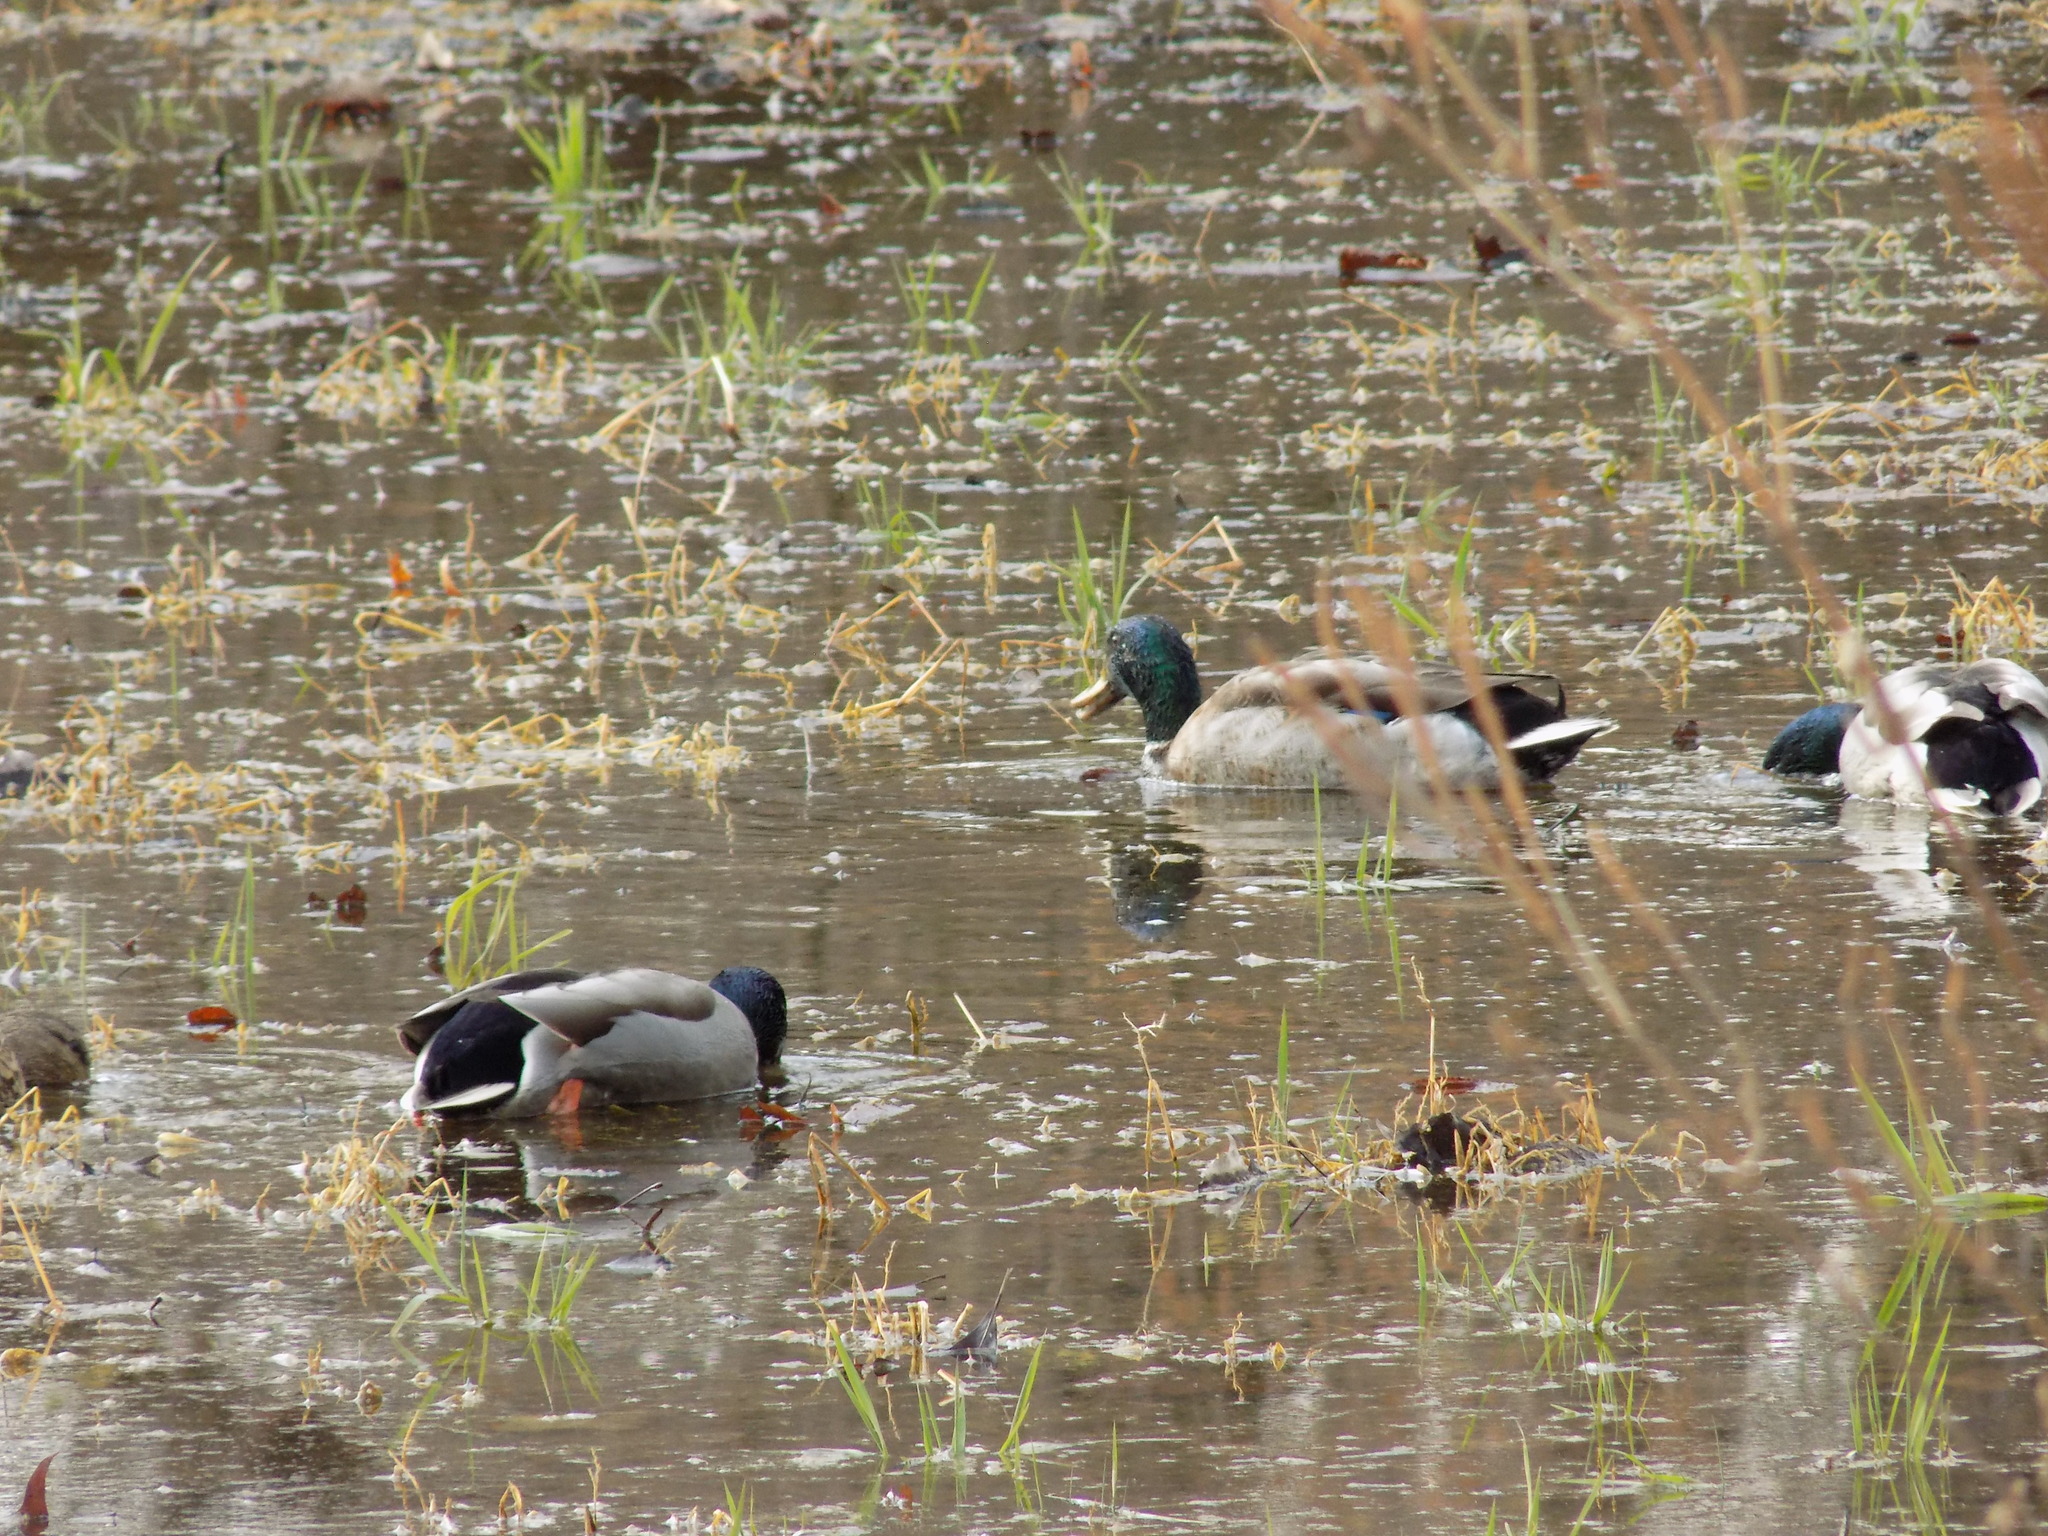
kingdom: Animalia
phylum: Chordata
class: Aves
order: Anseriformes
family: Anatidae
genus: Anas
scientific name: Anas platyrhynchos
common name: Mallard
